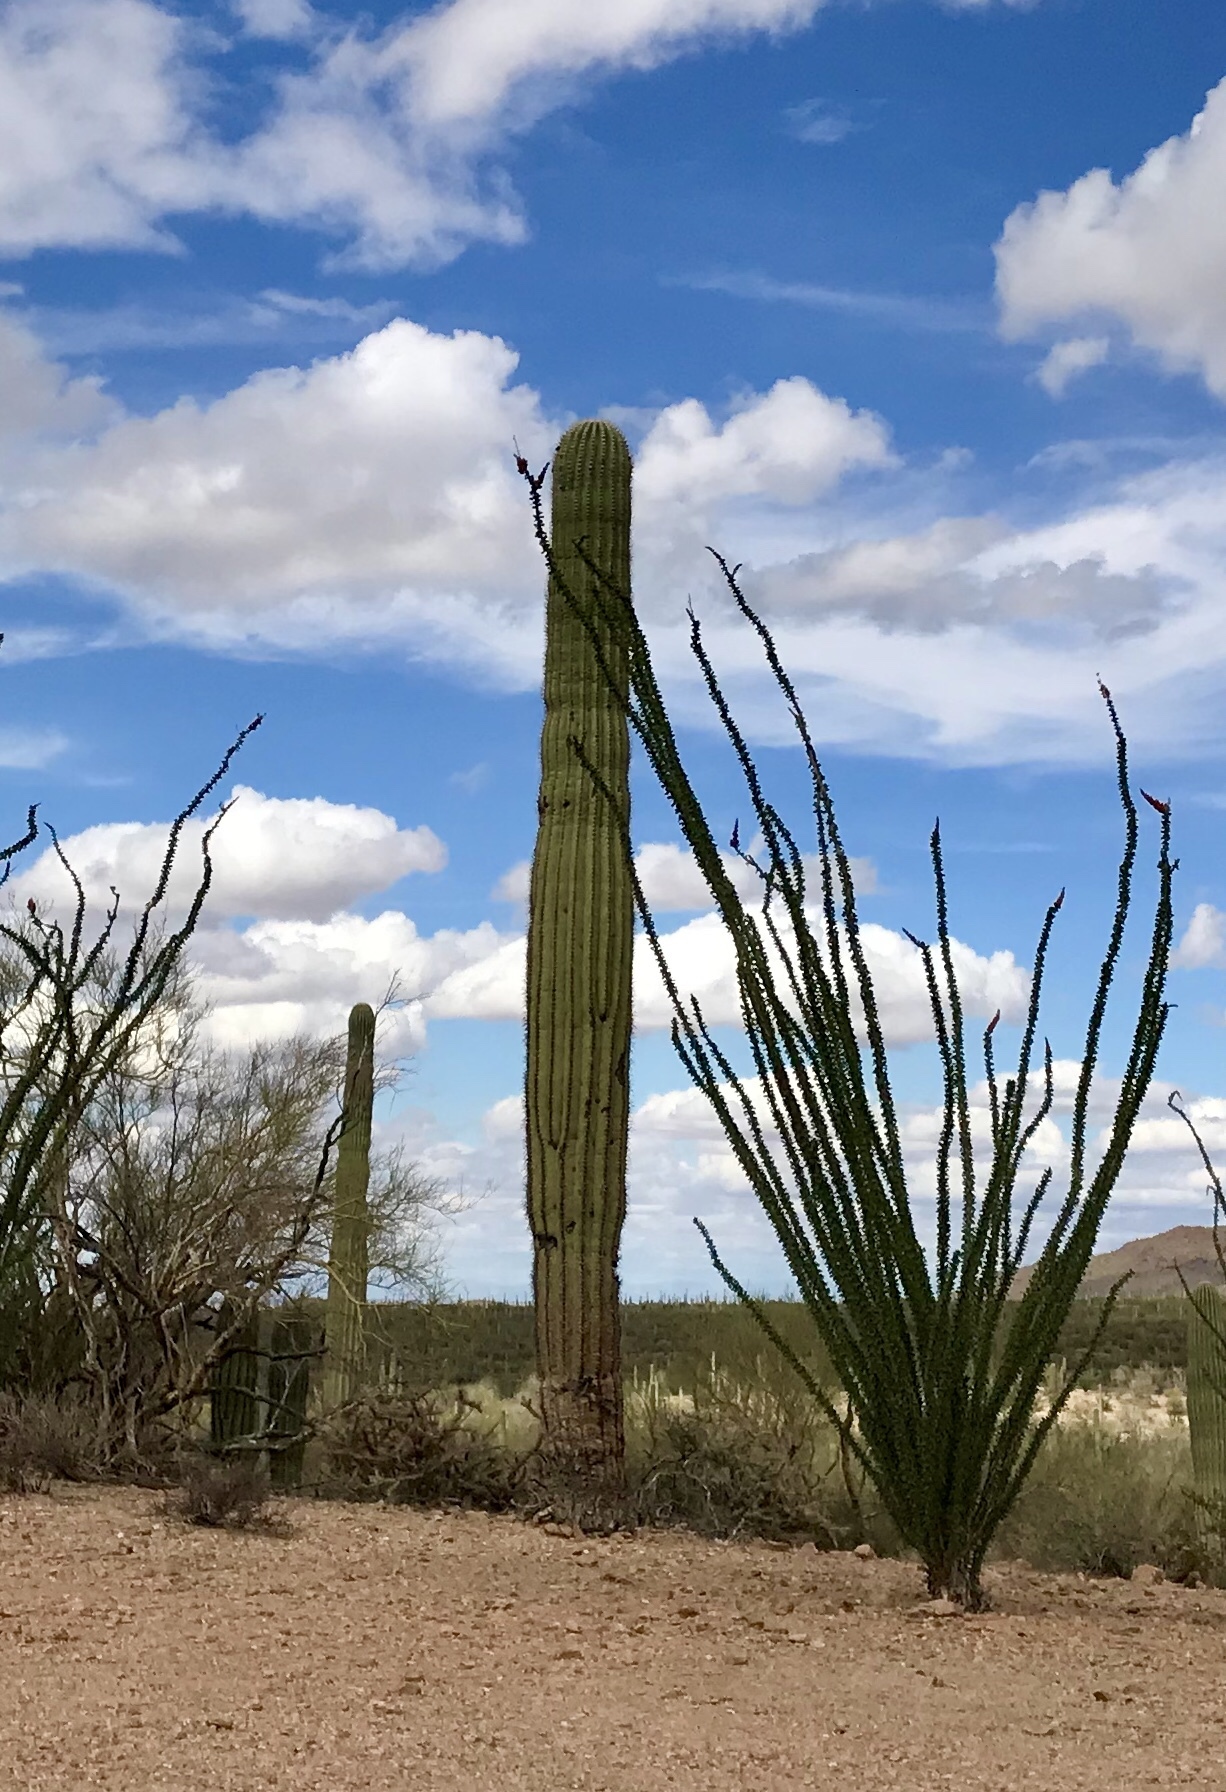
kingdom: Plantae
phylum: Tracheophyta
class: Magnoliopsida
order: Ericales
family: Fouquieriaceae
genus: Fouquieria
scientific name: Fouquieria splendens
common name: Vine-cactus
